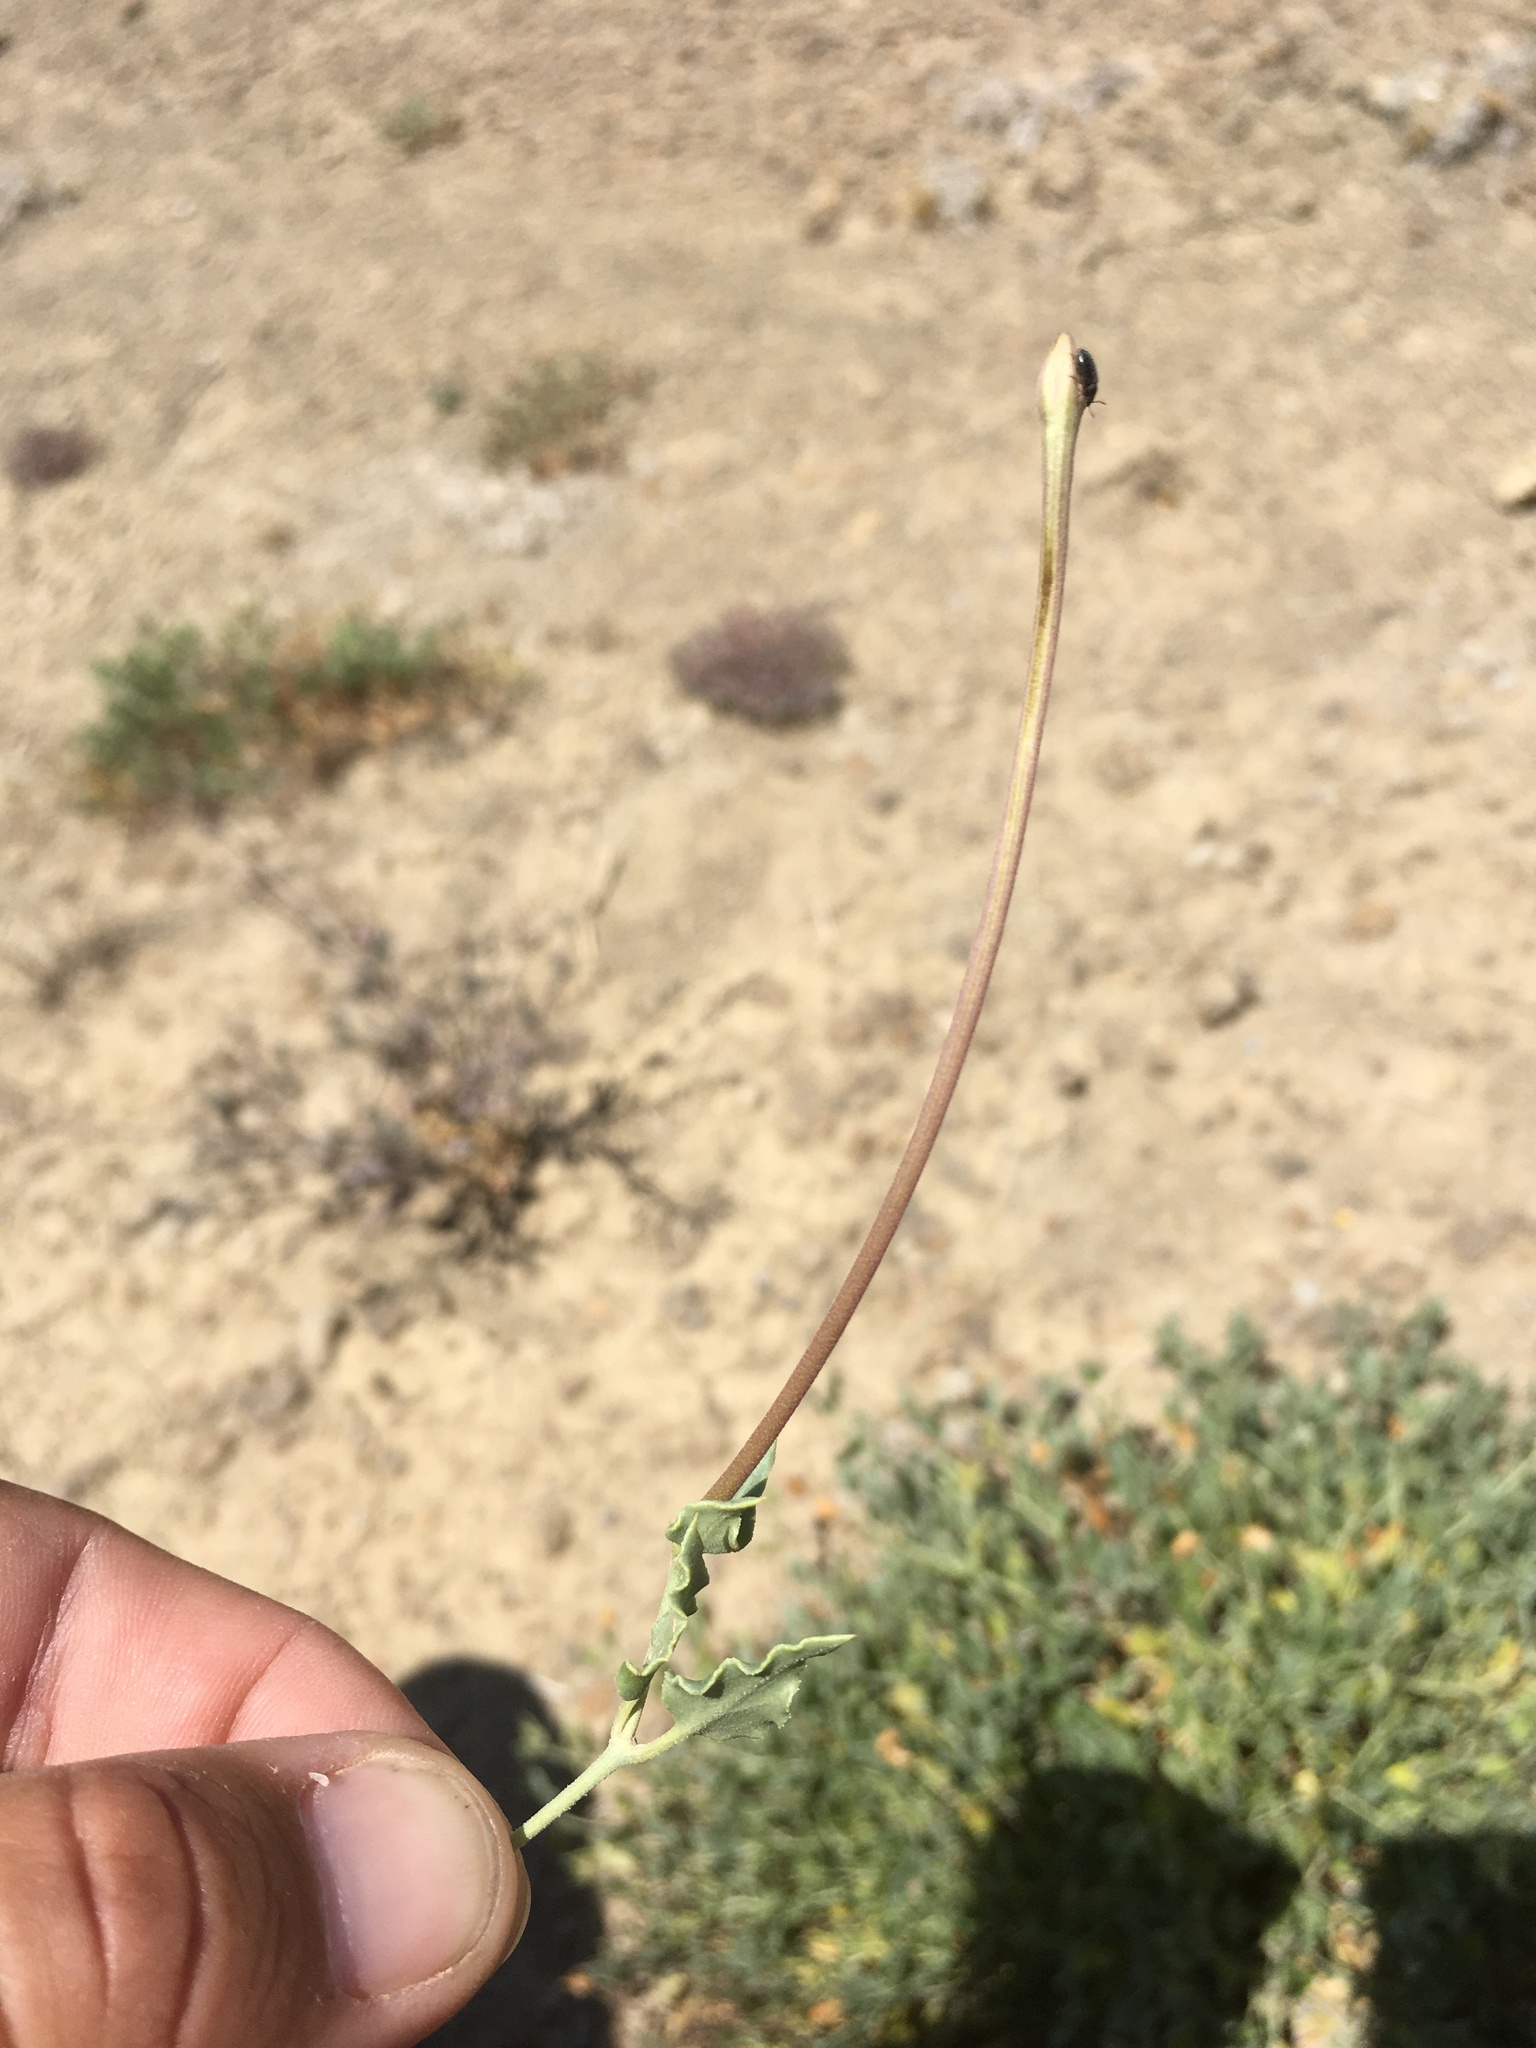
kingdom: Plantae
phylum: Tracheophyta
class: Magnoliopsida
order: Caryophyllales
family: Nyctaginaceae
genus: Acleisanthes
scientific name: Acleisanthes longiflora
